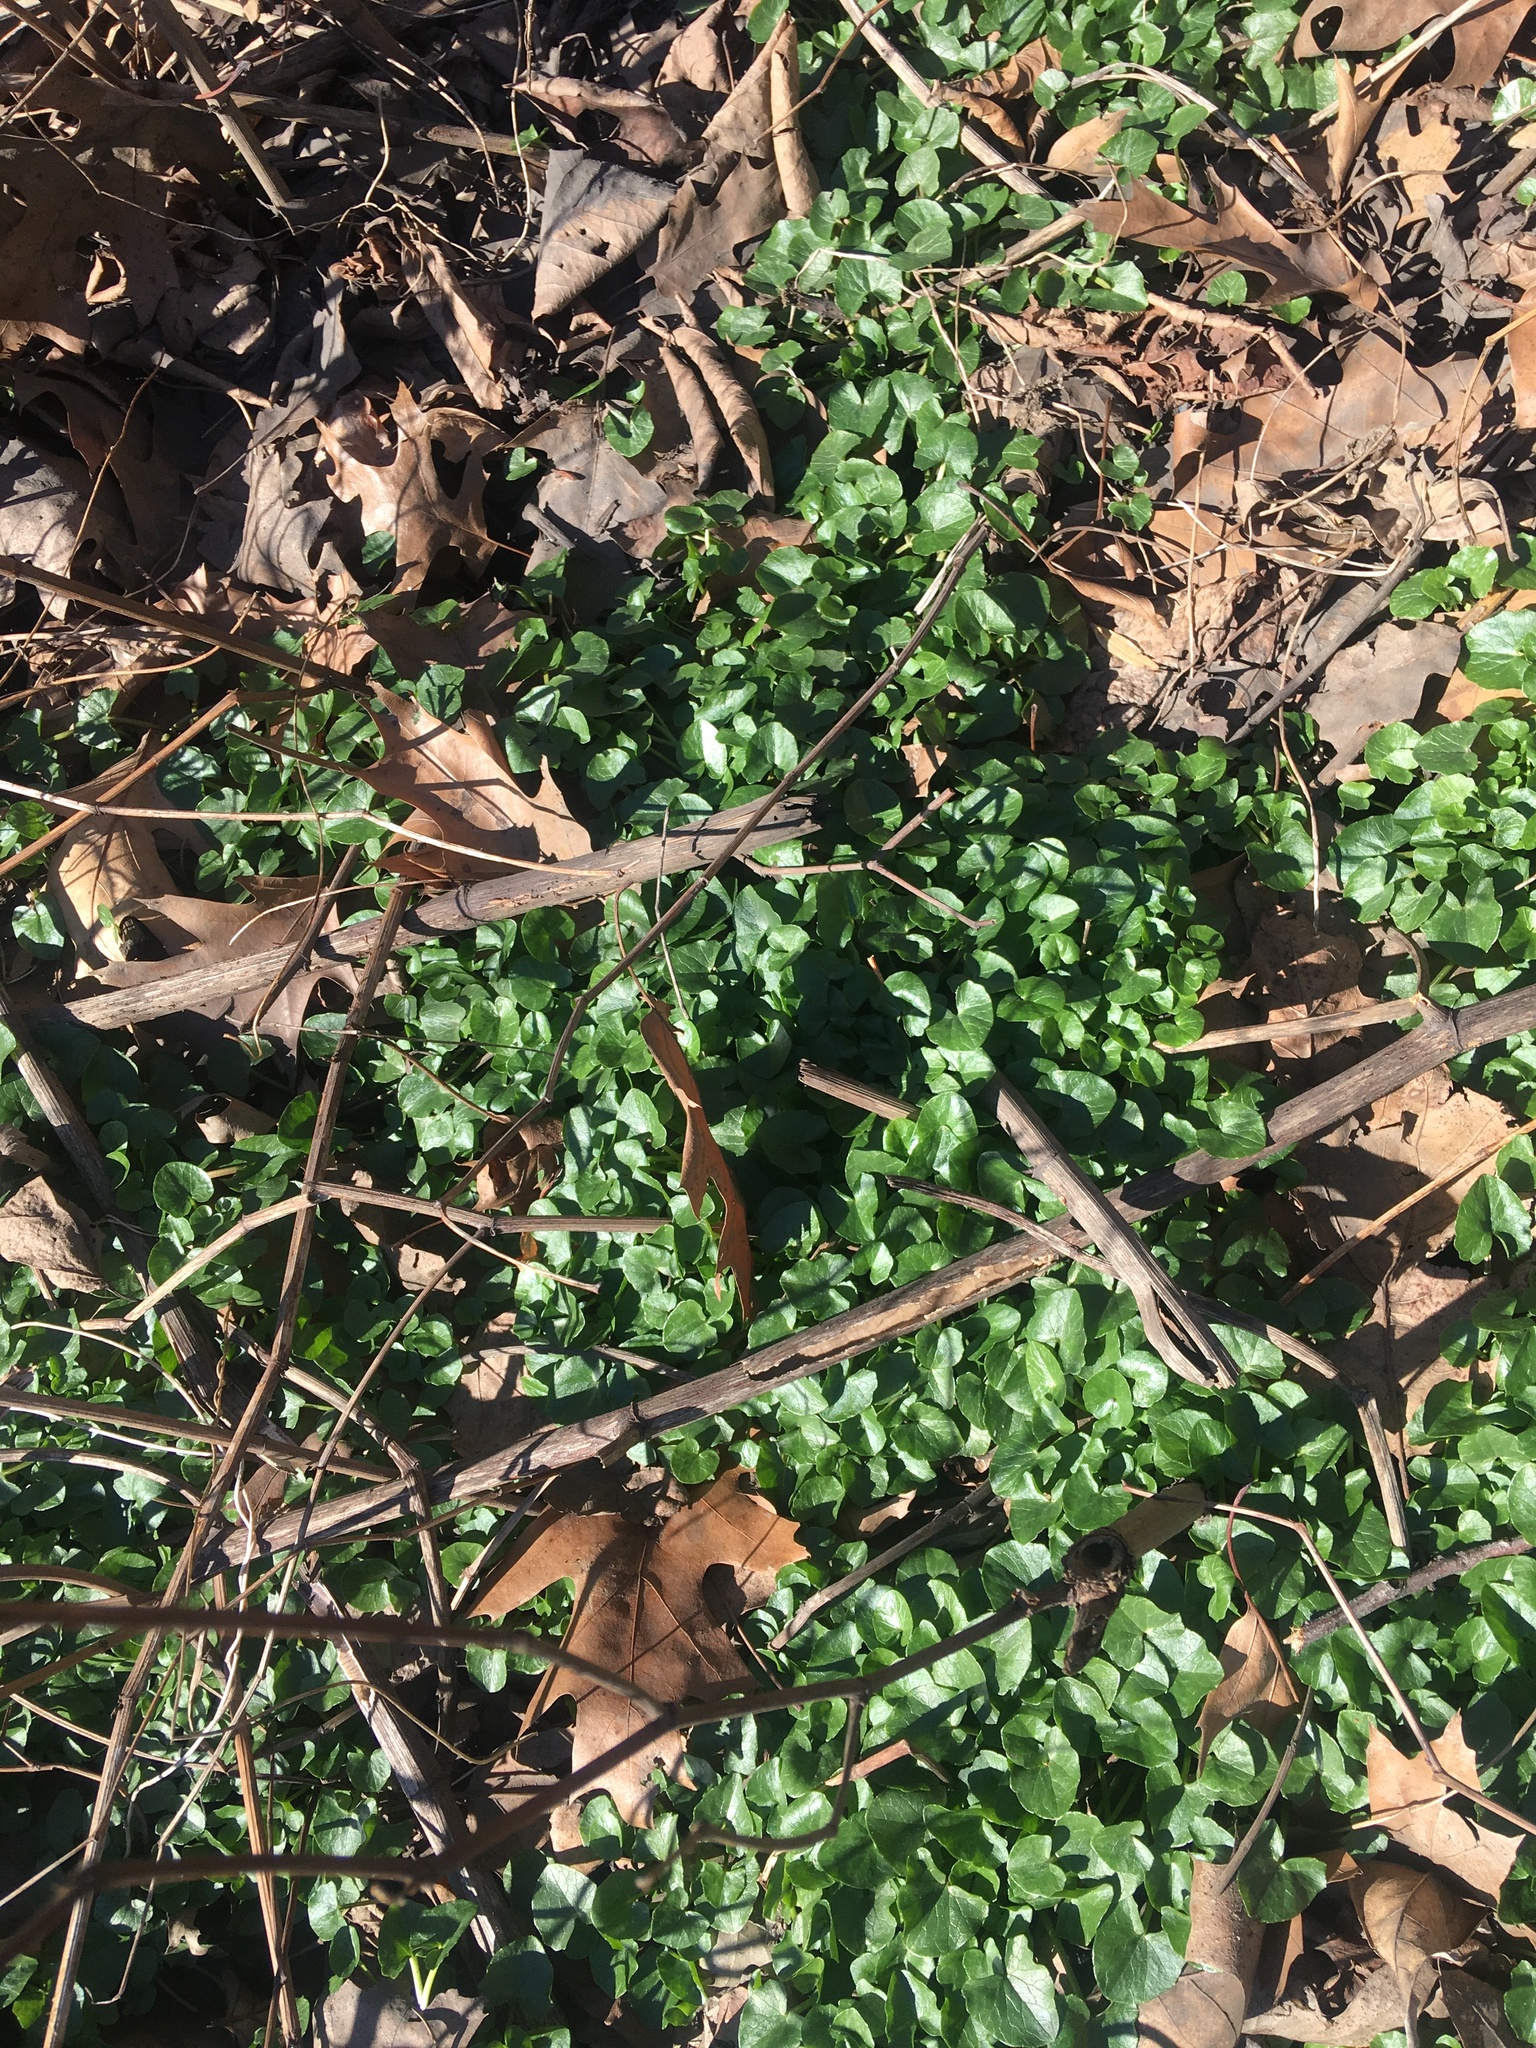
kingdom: Plantae
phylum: Tracheophyta
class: Magnoliopsida
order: Ranunculales
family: Ranunculaceae
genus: Ficaria
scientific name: Ficaria verna
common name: Lesser celandine
